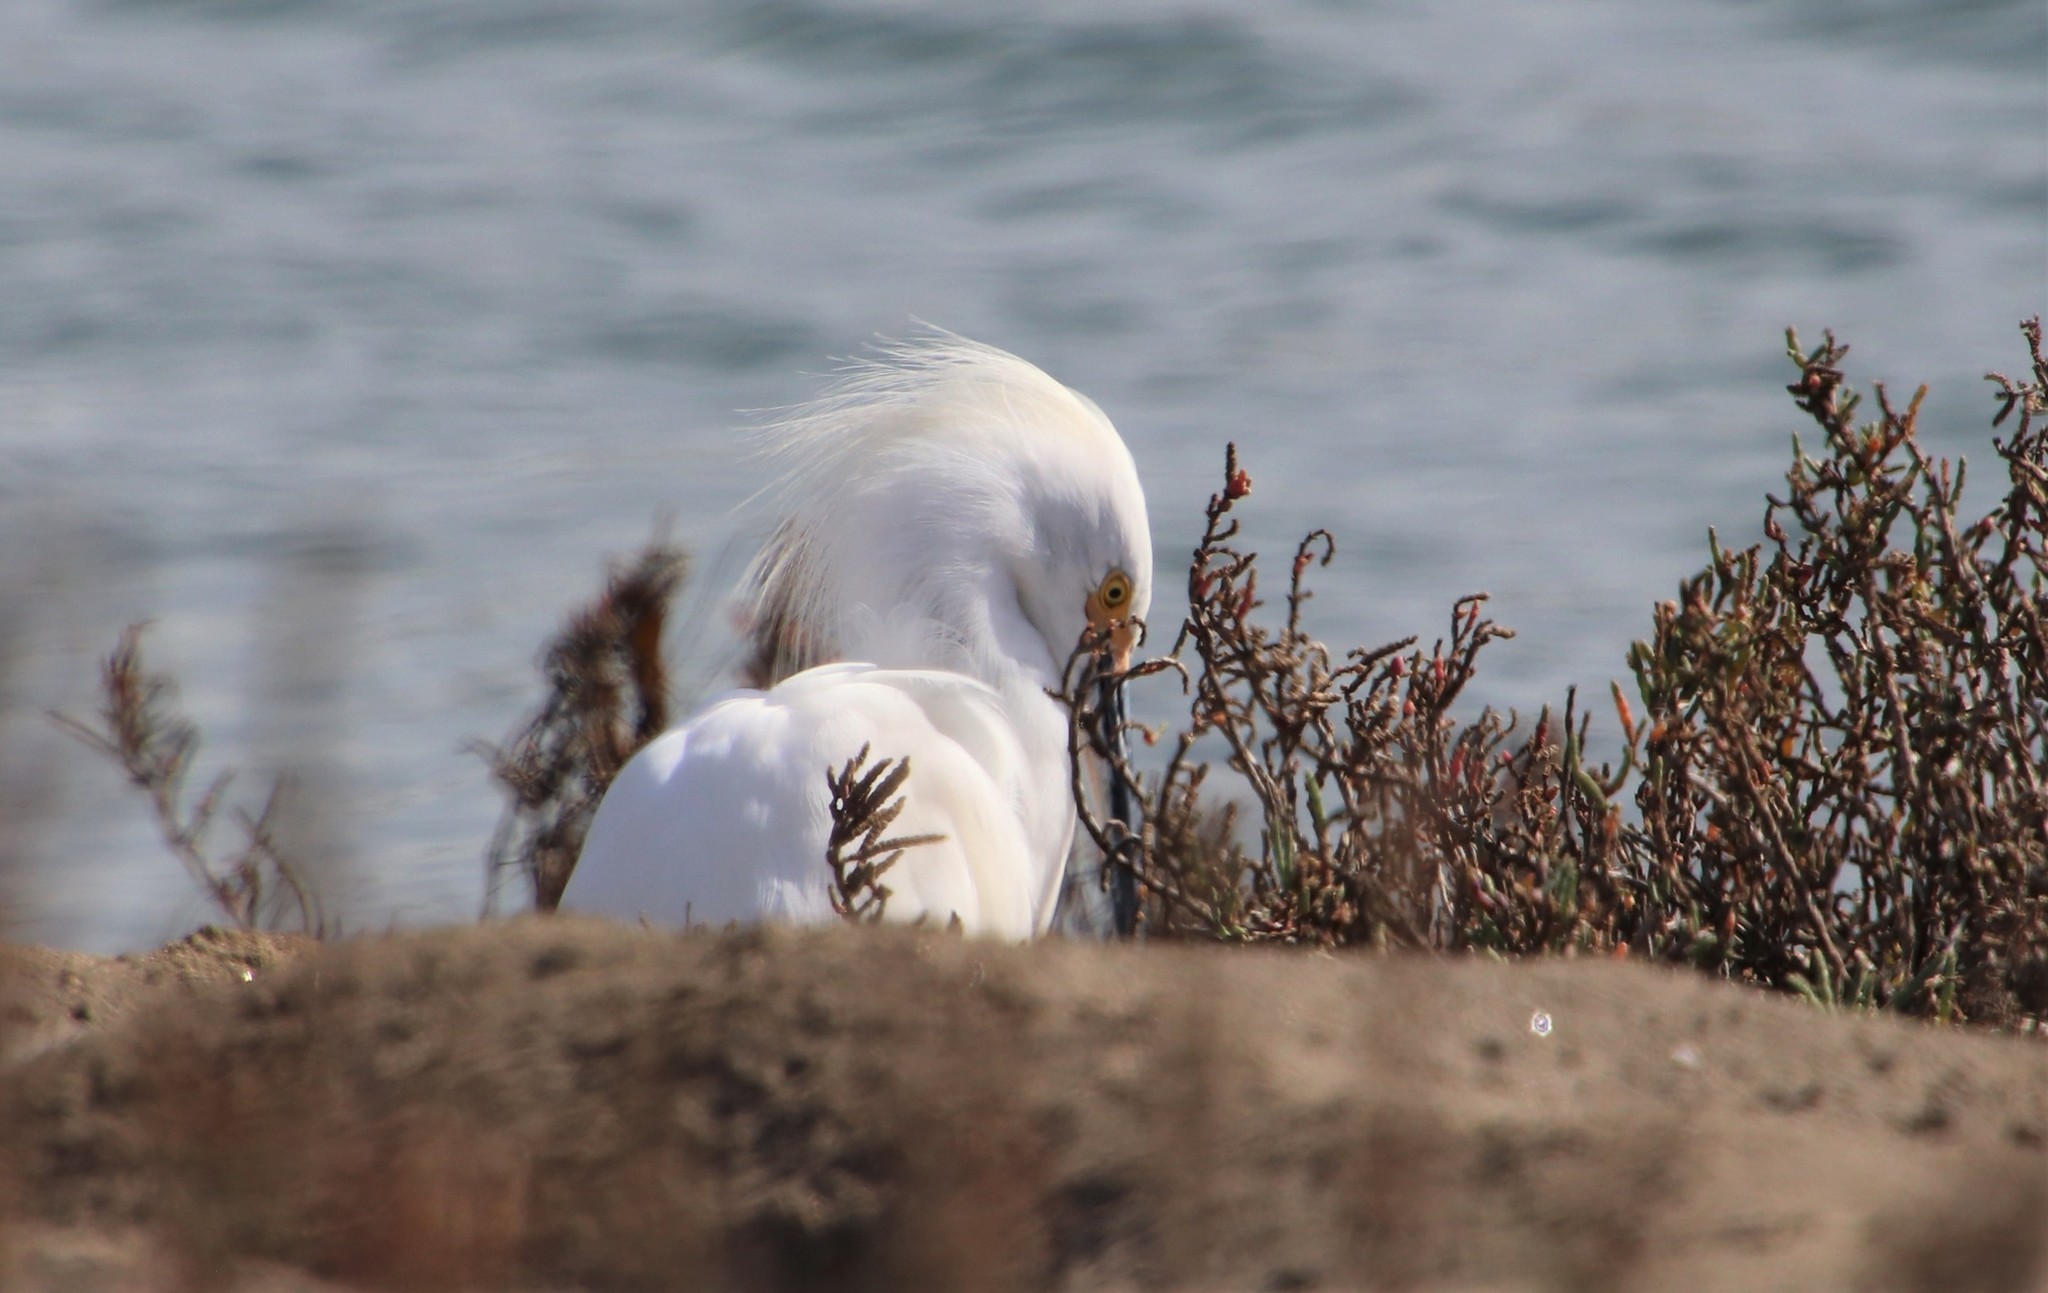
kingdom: Animalia
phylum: Chordata
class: Aves
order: Pelecaniformes
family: Ardeidae
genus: Egretta
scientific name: Egretta thula
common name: Snowy egret
